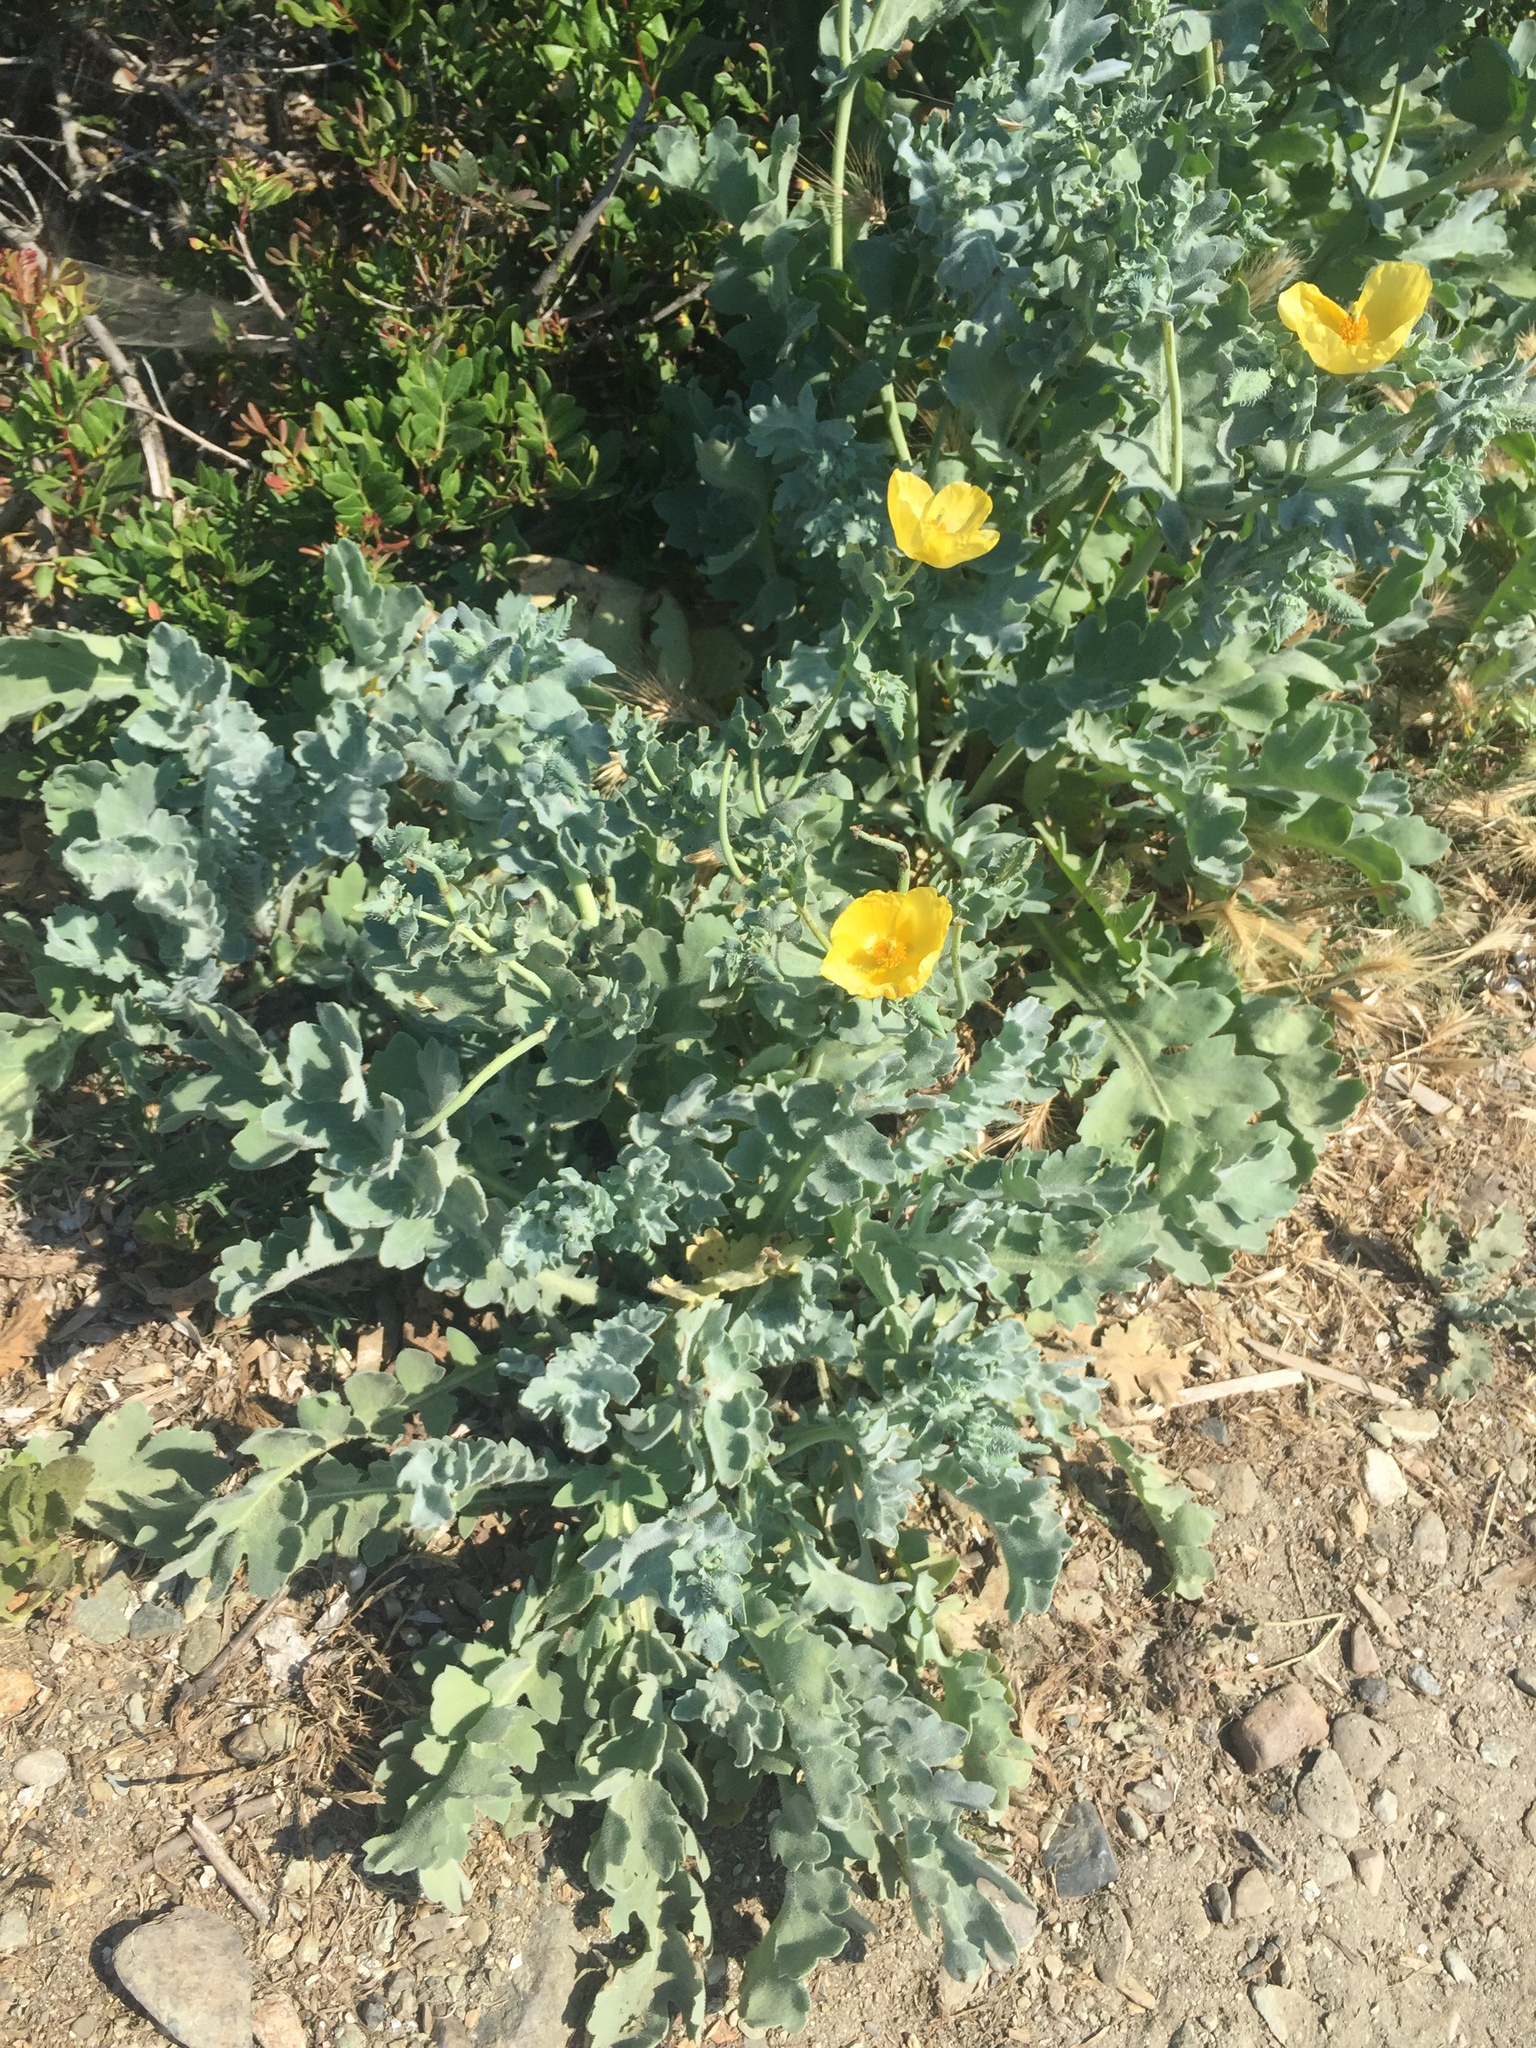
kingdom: Plantae
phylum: Tracheophyta
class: Magnoliopsida
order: Ranunculales
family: Papaveraceae
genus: Glaucium
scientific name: Glaucium flavum
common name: Yellow horned-poppy
